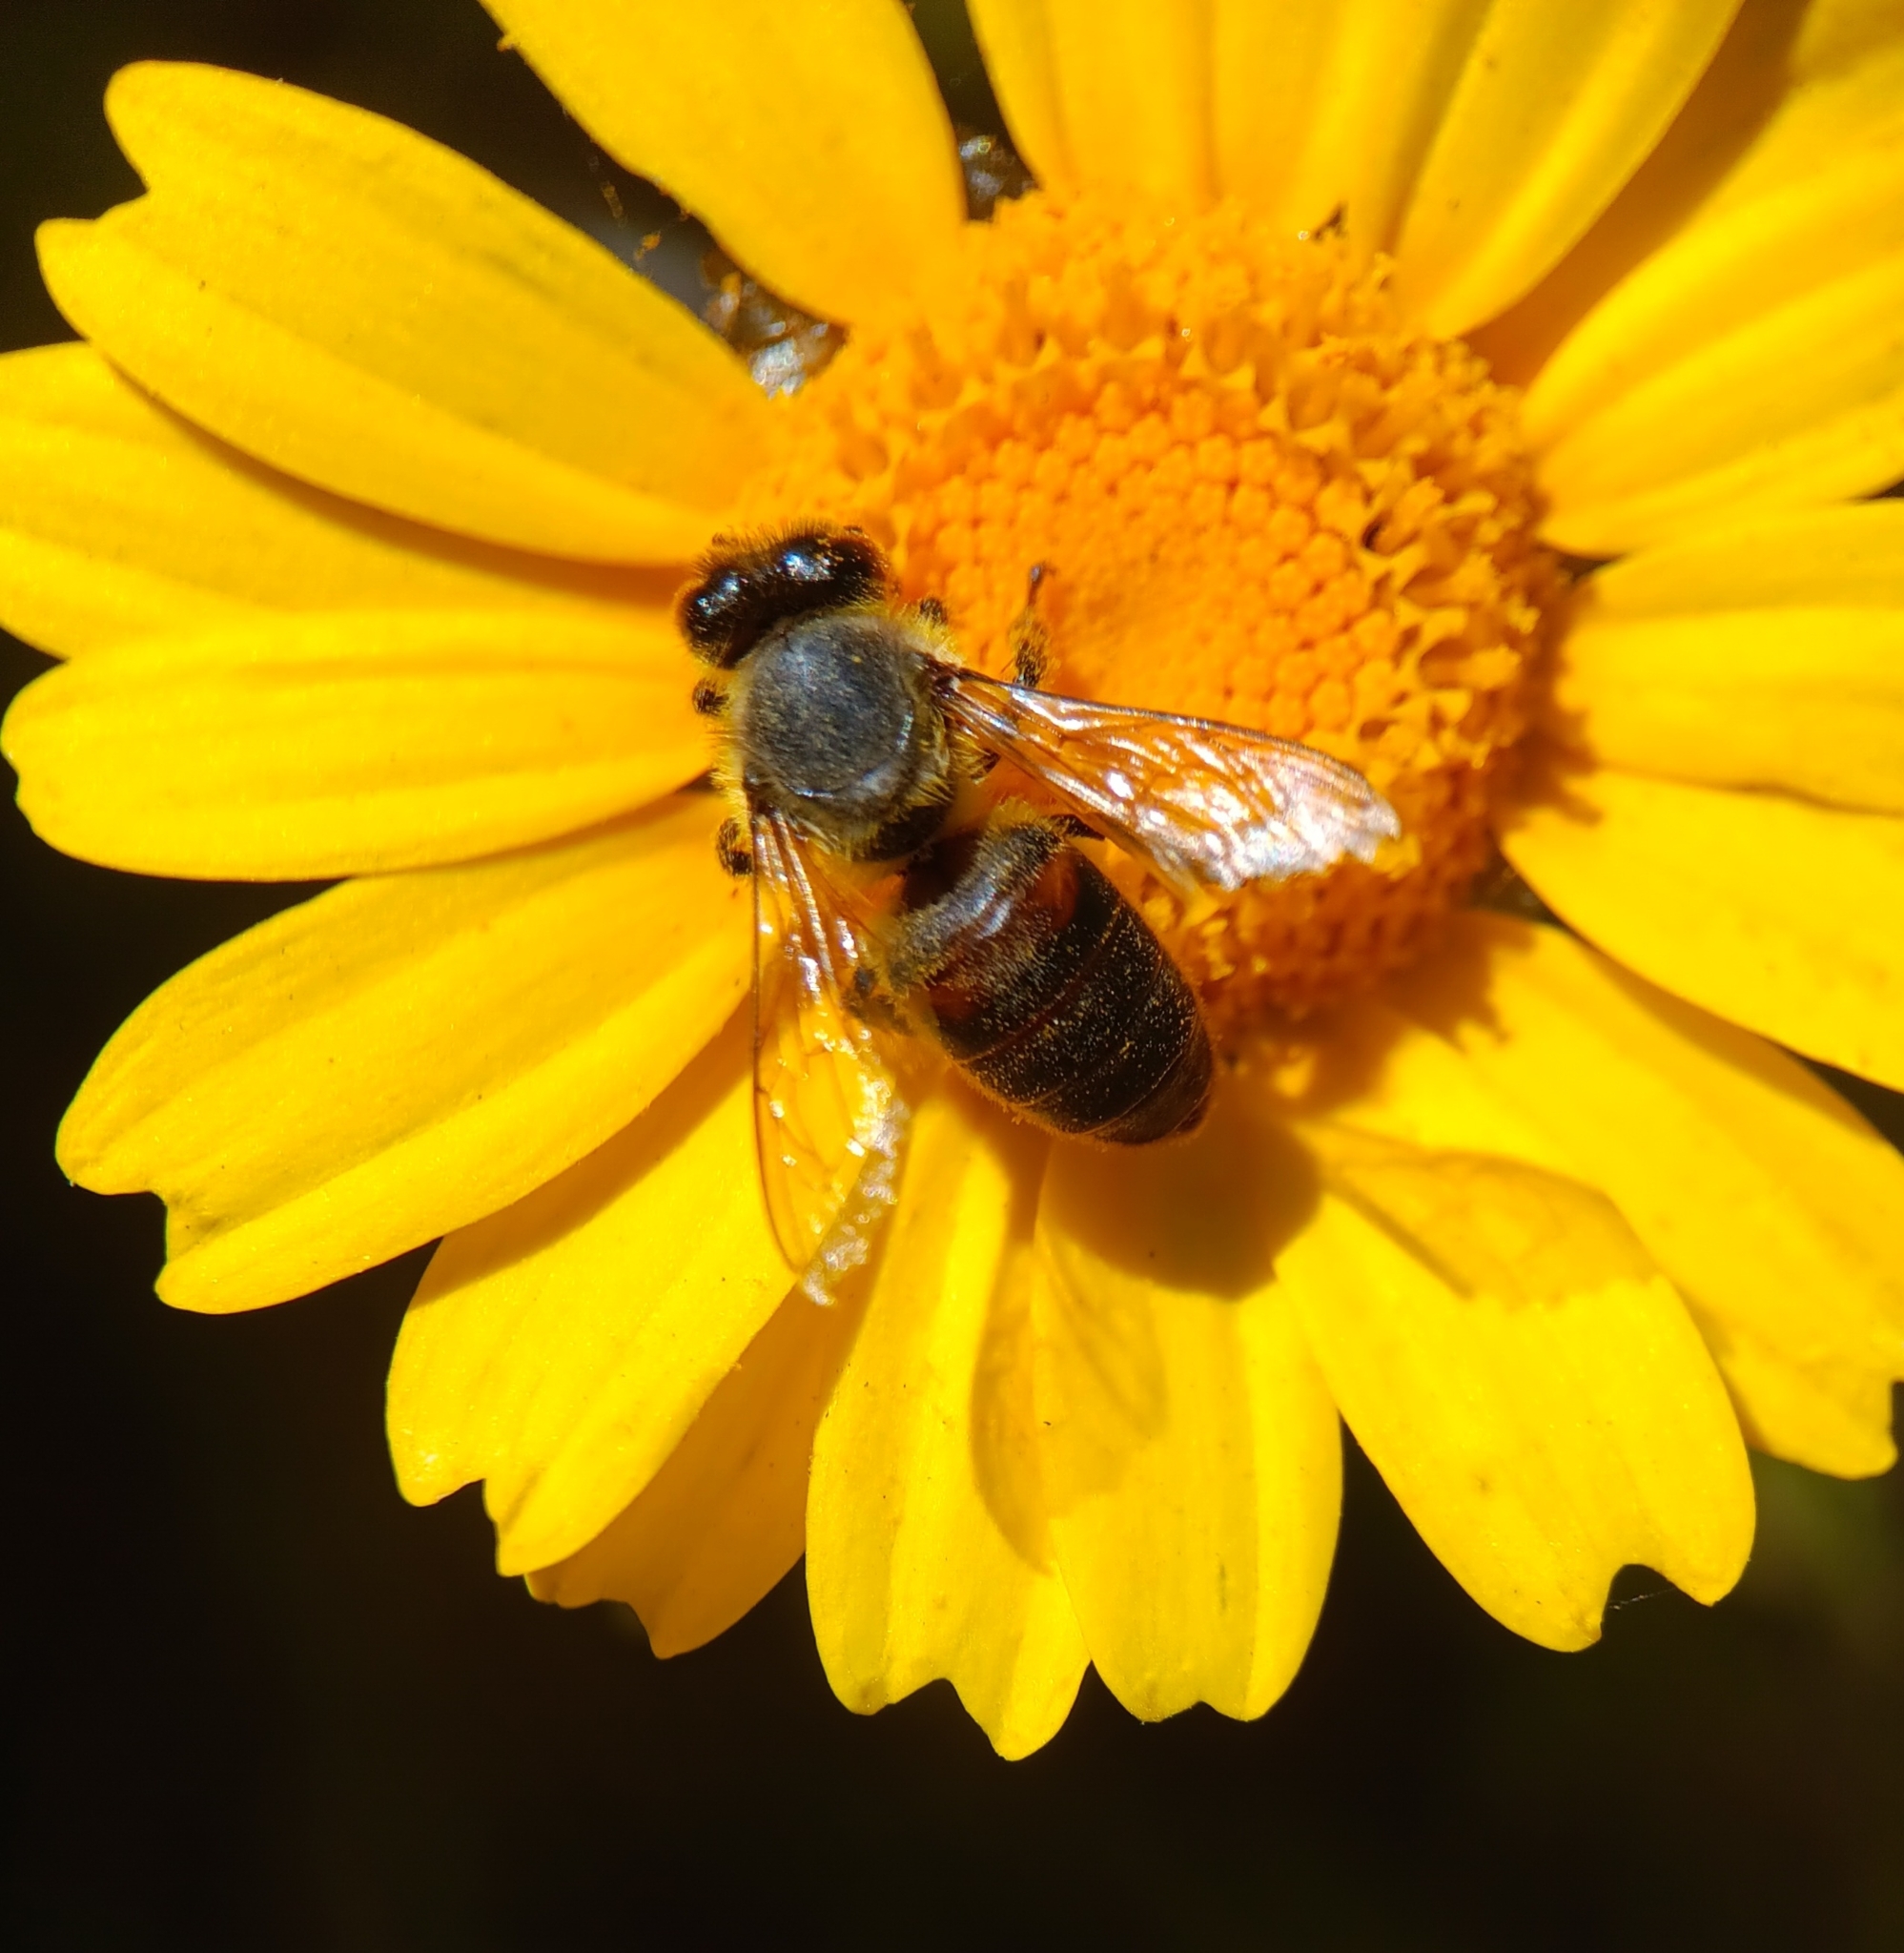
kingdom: Animalia
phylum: Arthropoda
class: Insecta
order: Hymenoptera
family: Apidae
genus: Apis
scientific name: Apis mellifera
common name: Honey bee
